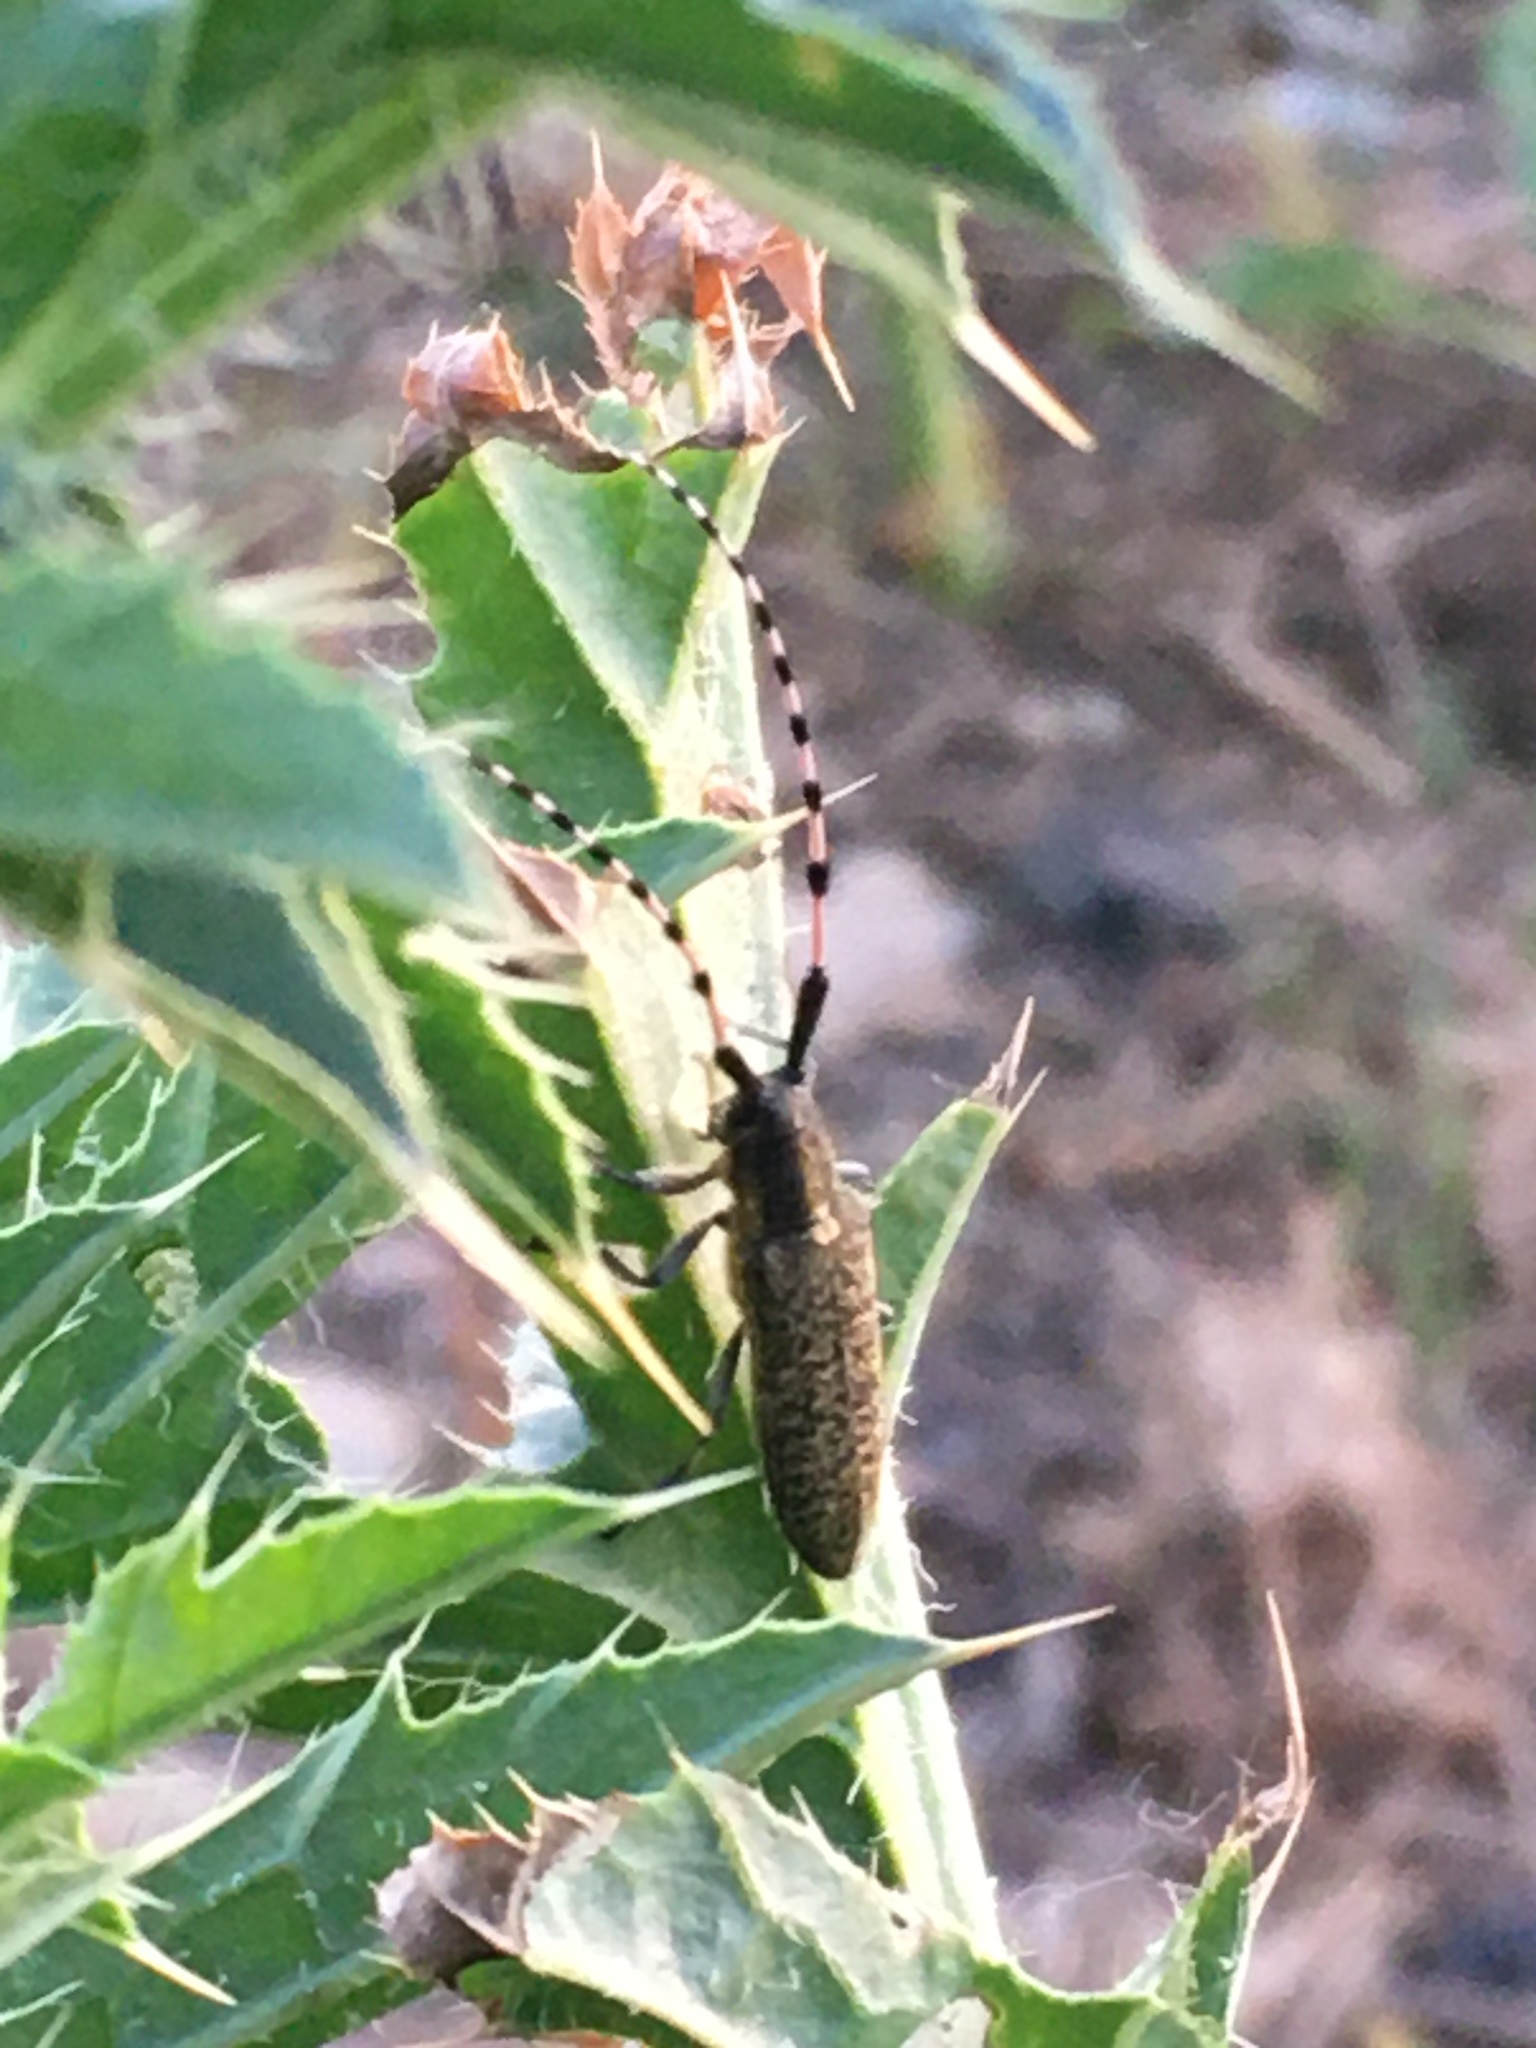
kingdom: Animalia
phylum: Arthropoda
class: Insecta
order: Coleoptera
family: Cerambycidae
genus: Agapanthia
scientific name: Agapanthia dahlii
